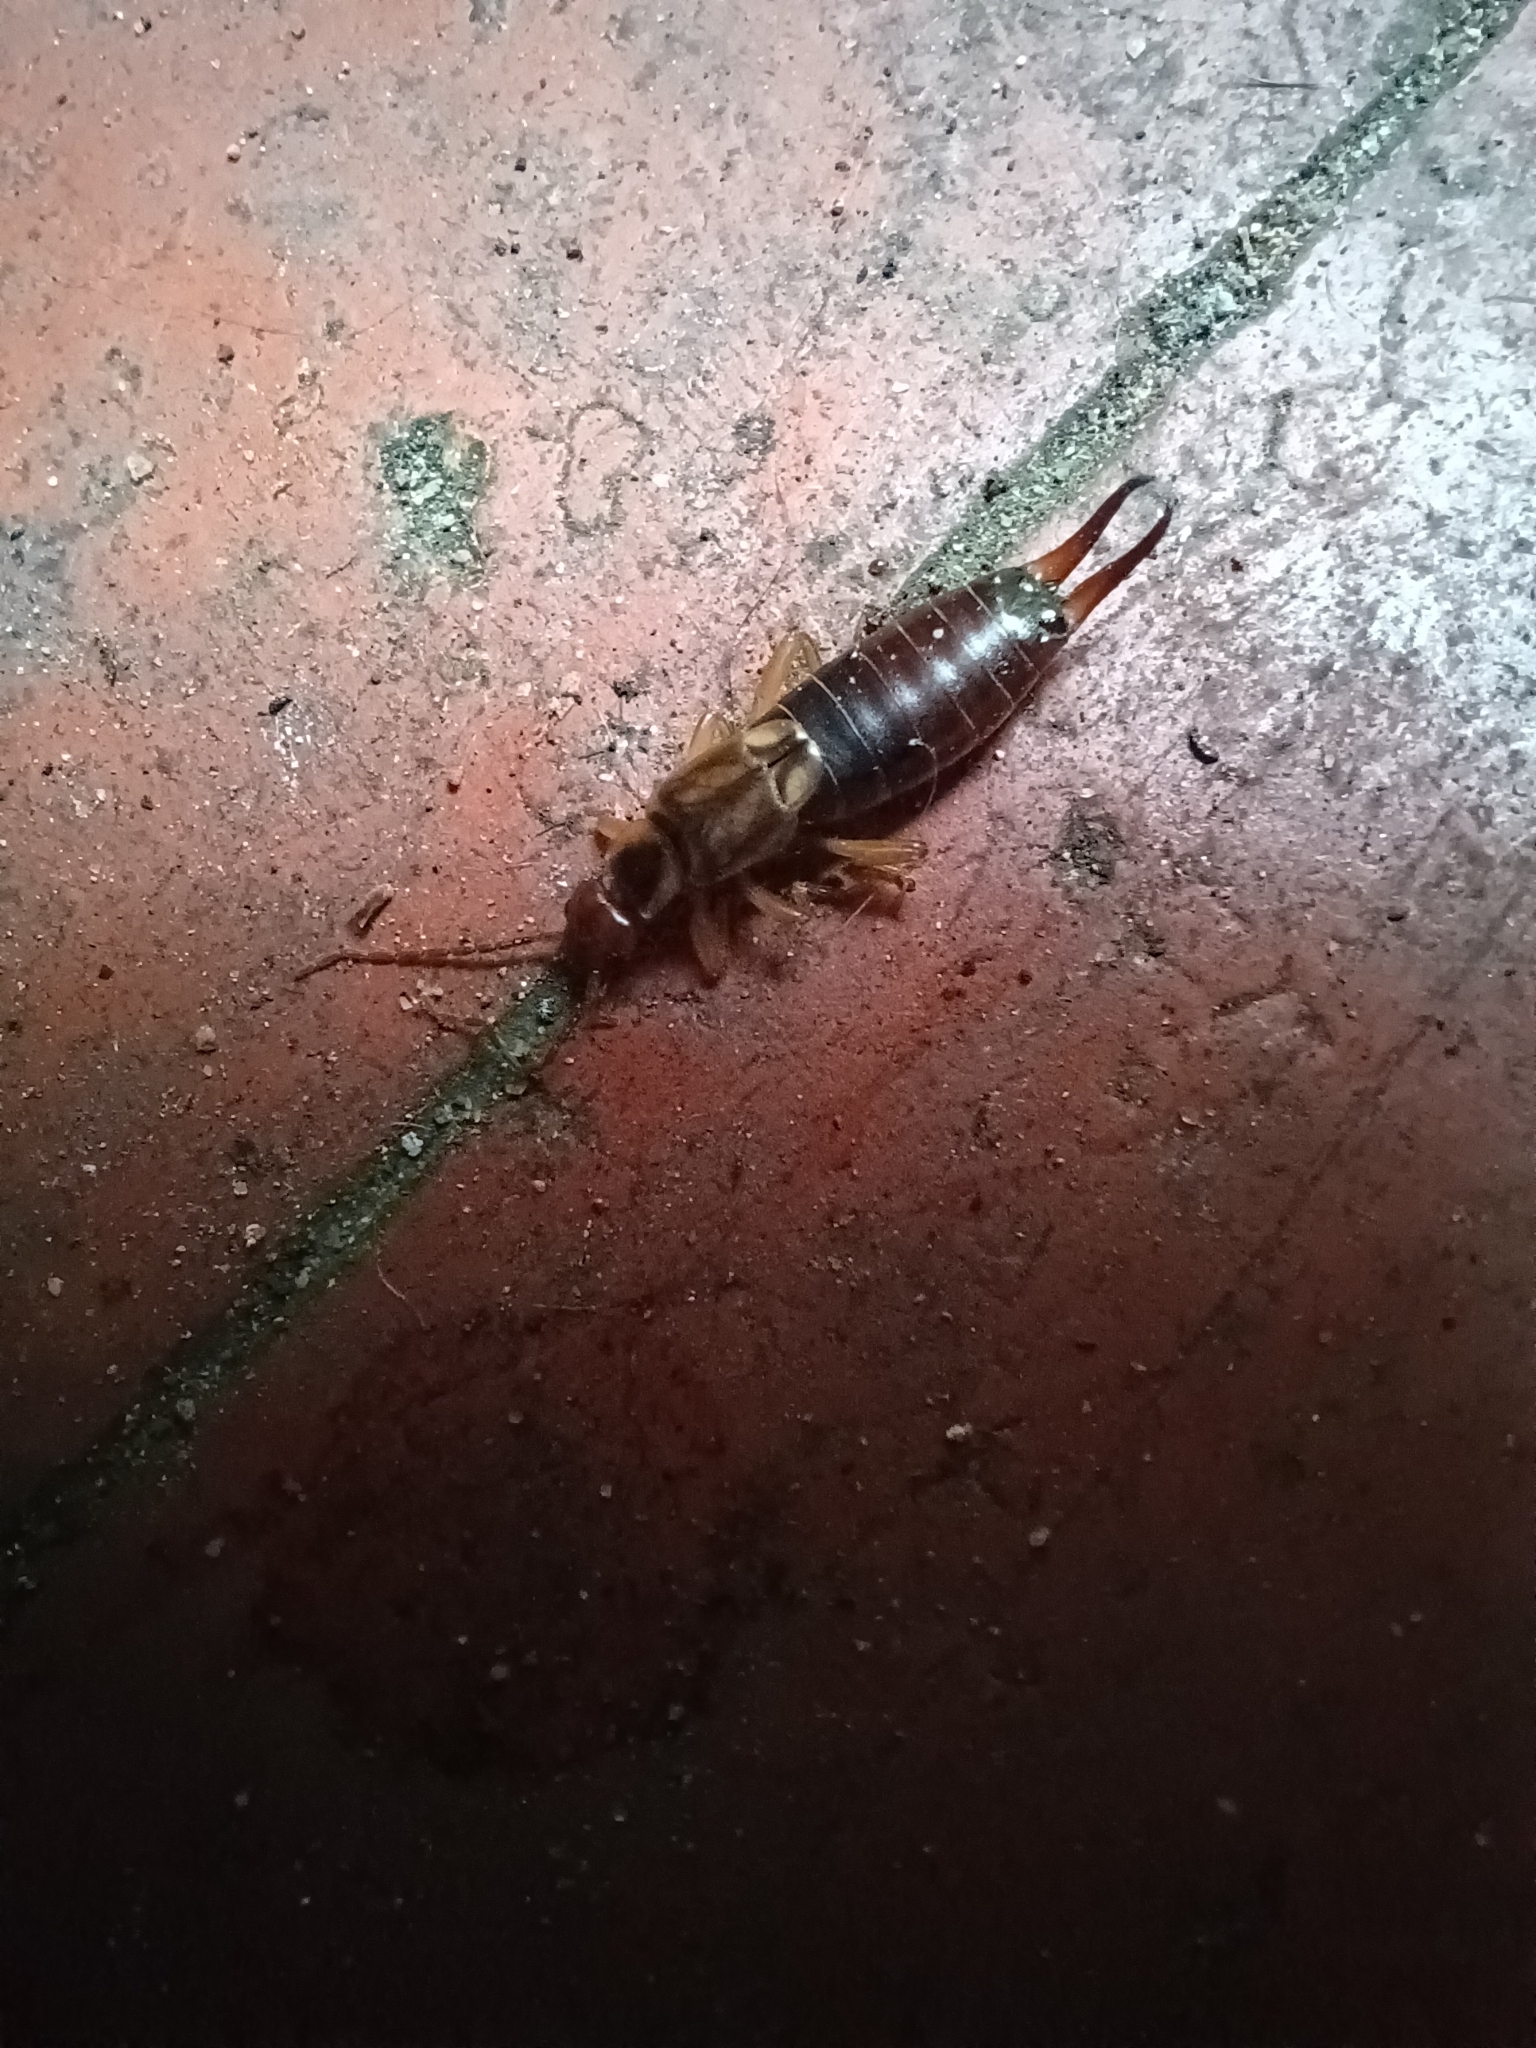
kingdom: Animalia
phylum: Arthropoda
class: Insecta
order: Dermaptera
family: Forficulidae
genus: Forficula
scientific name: Forficula
